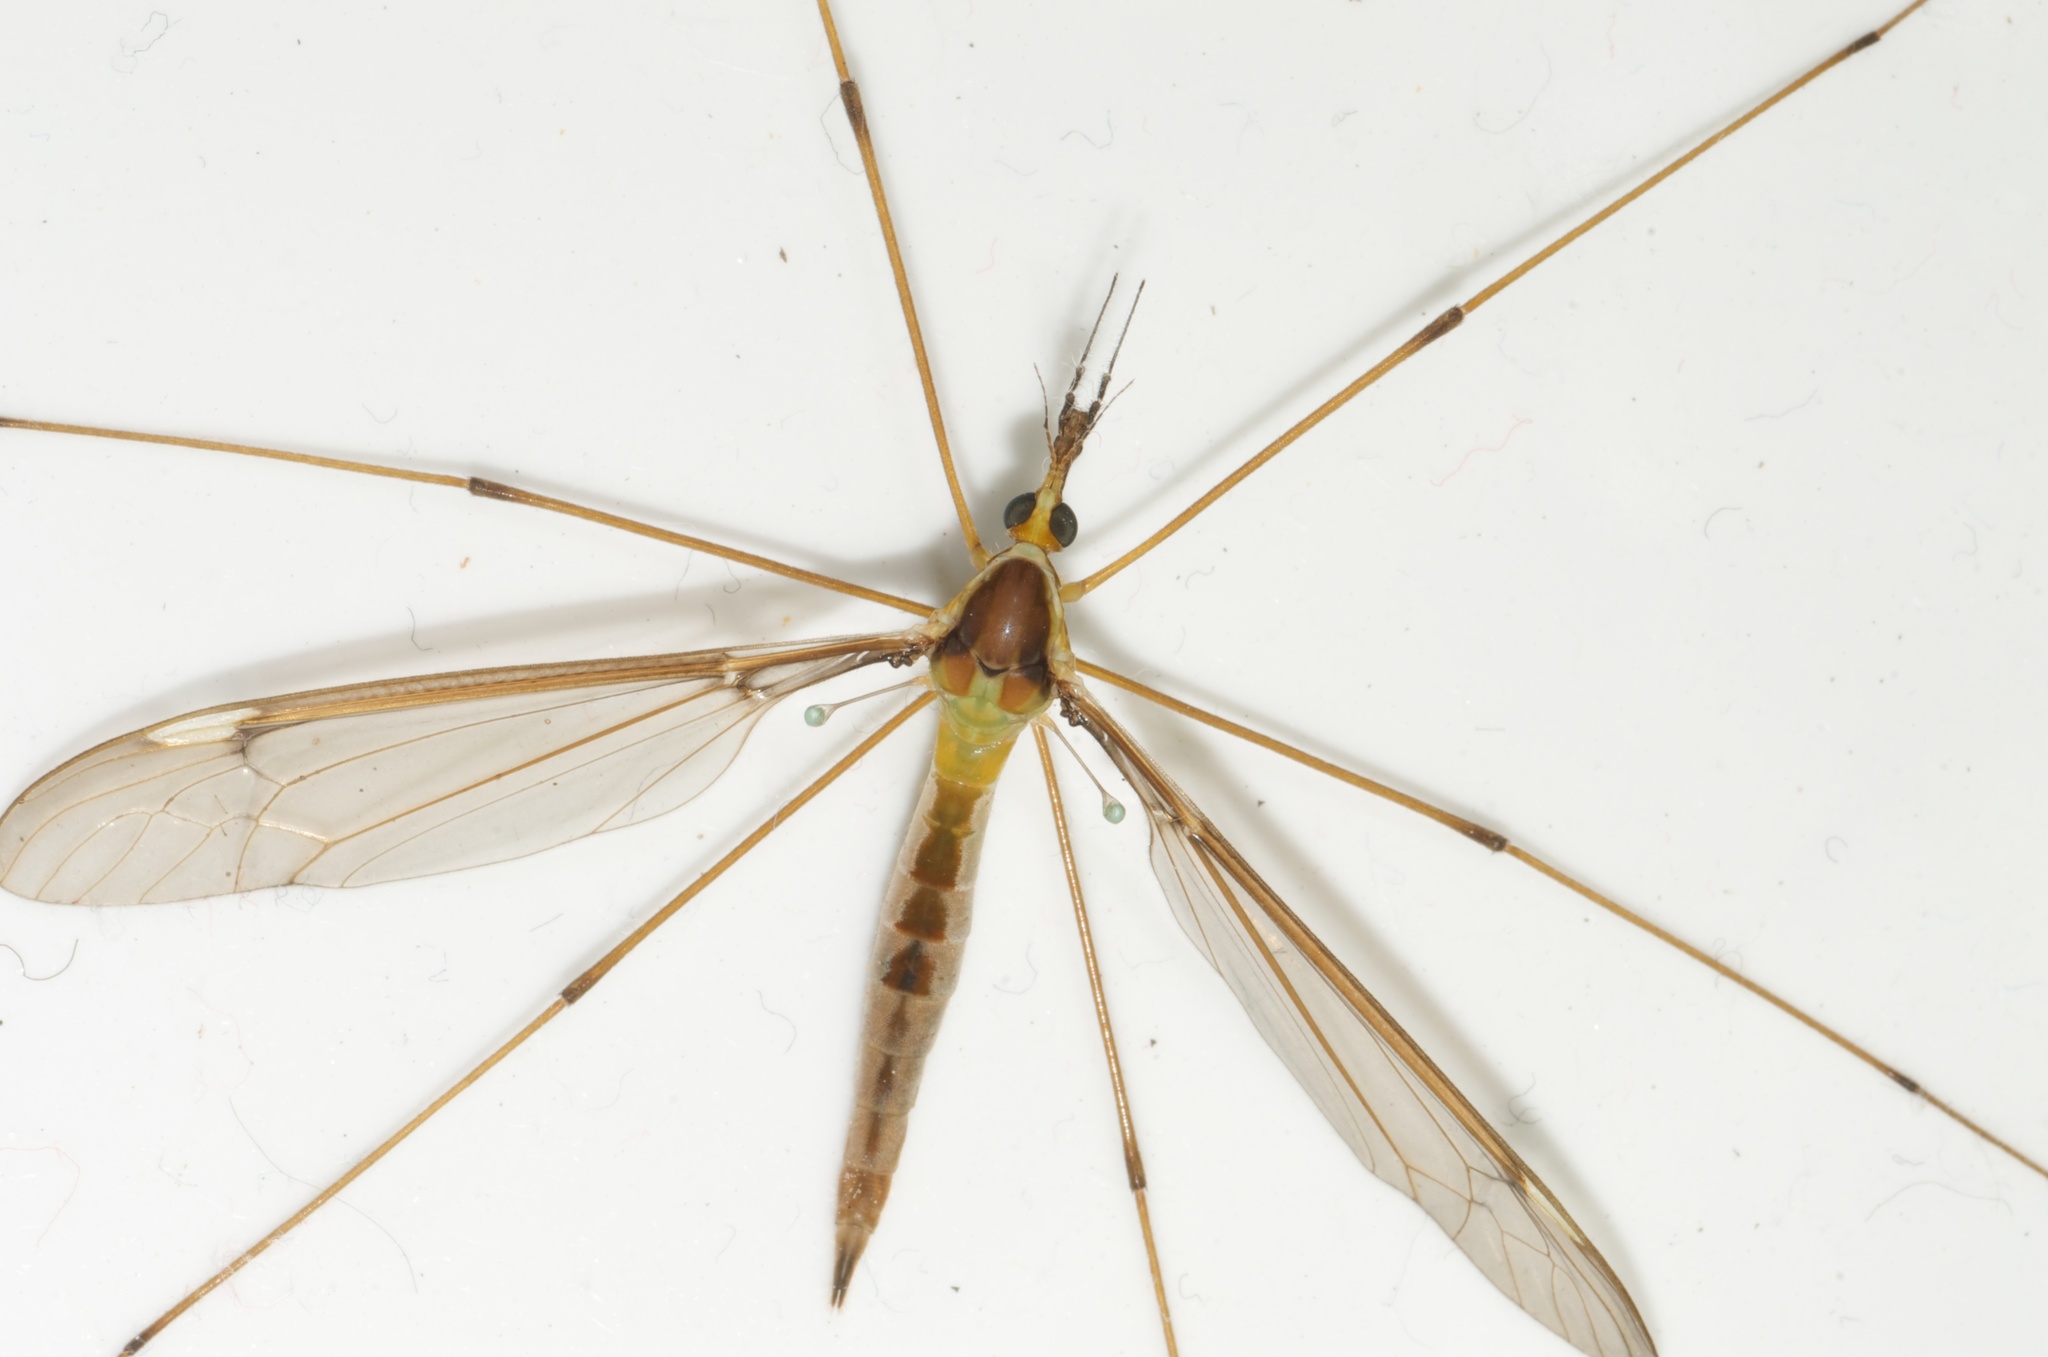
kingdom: Animalia
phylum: Arthropoda
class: Insecta
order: Diptera
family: Tipulidae
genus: Leptotarsus
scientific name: Leptotarsus albistigma
